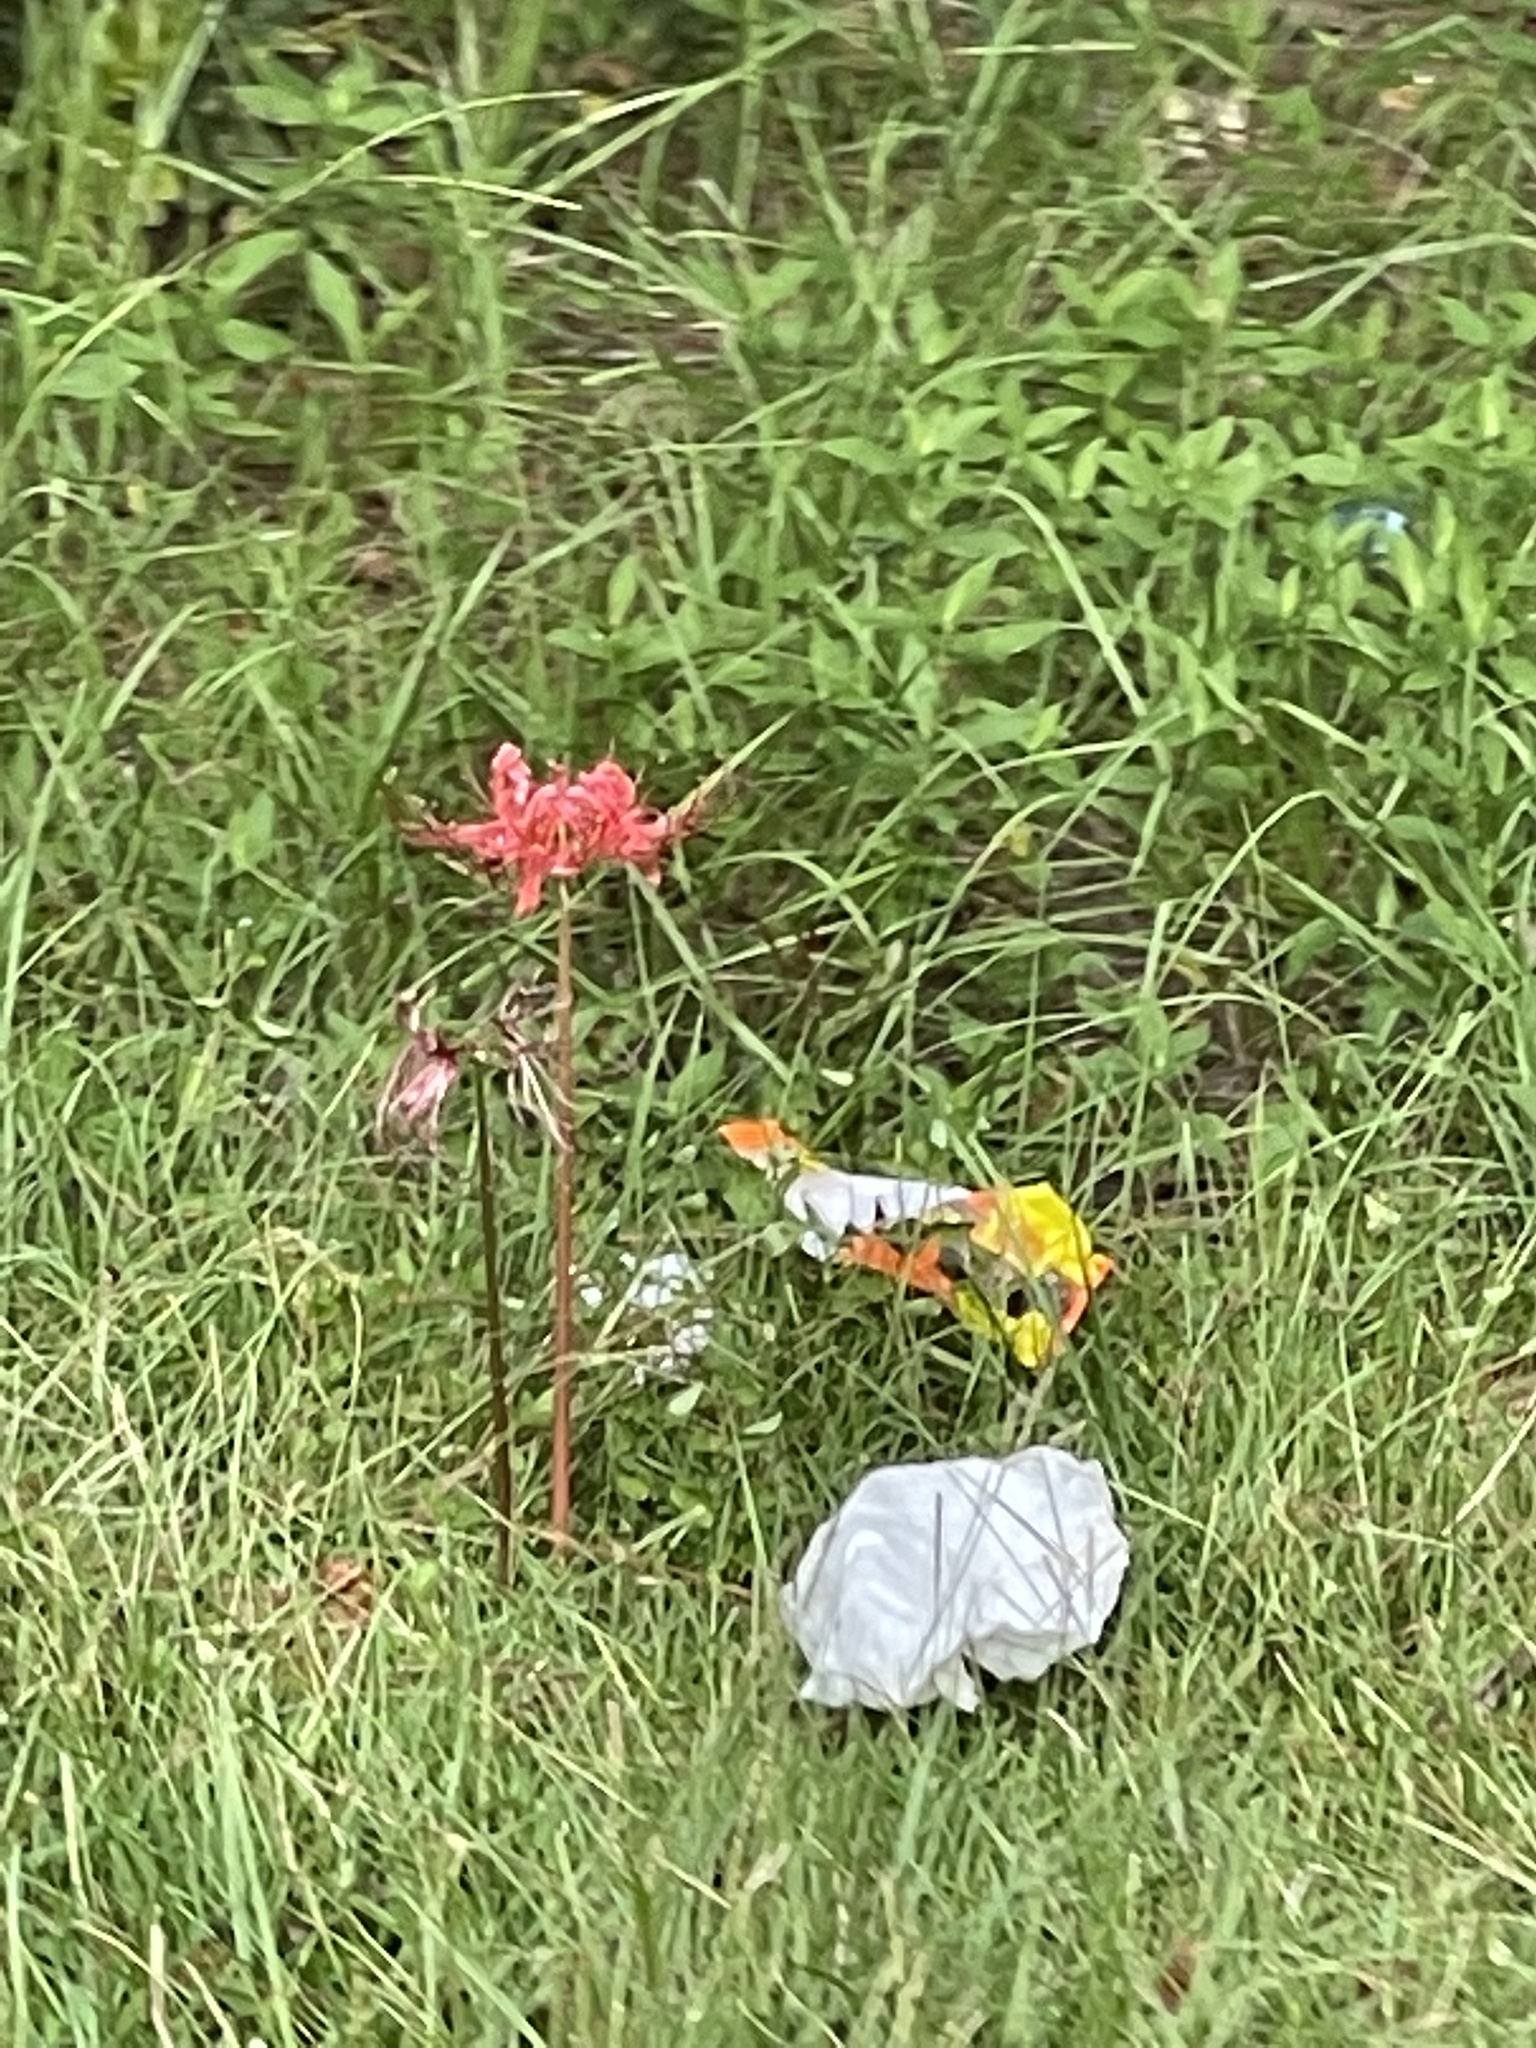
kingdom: Plantae
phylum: Tracheophyta
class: Liliopsida
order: Asparagales
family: Amaryllidaceae
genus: Lycoris
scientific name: Lycoris radiata
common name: Red spider lily
